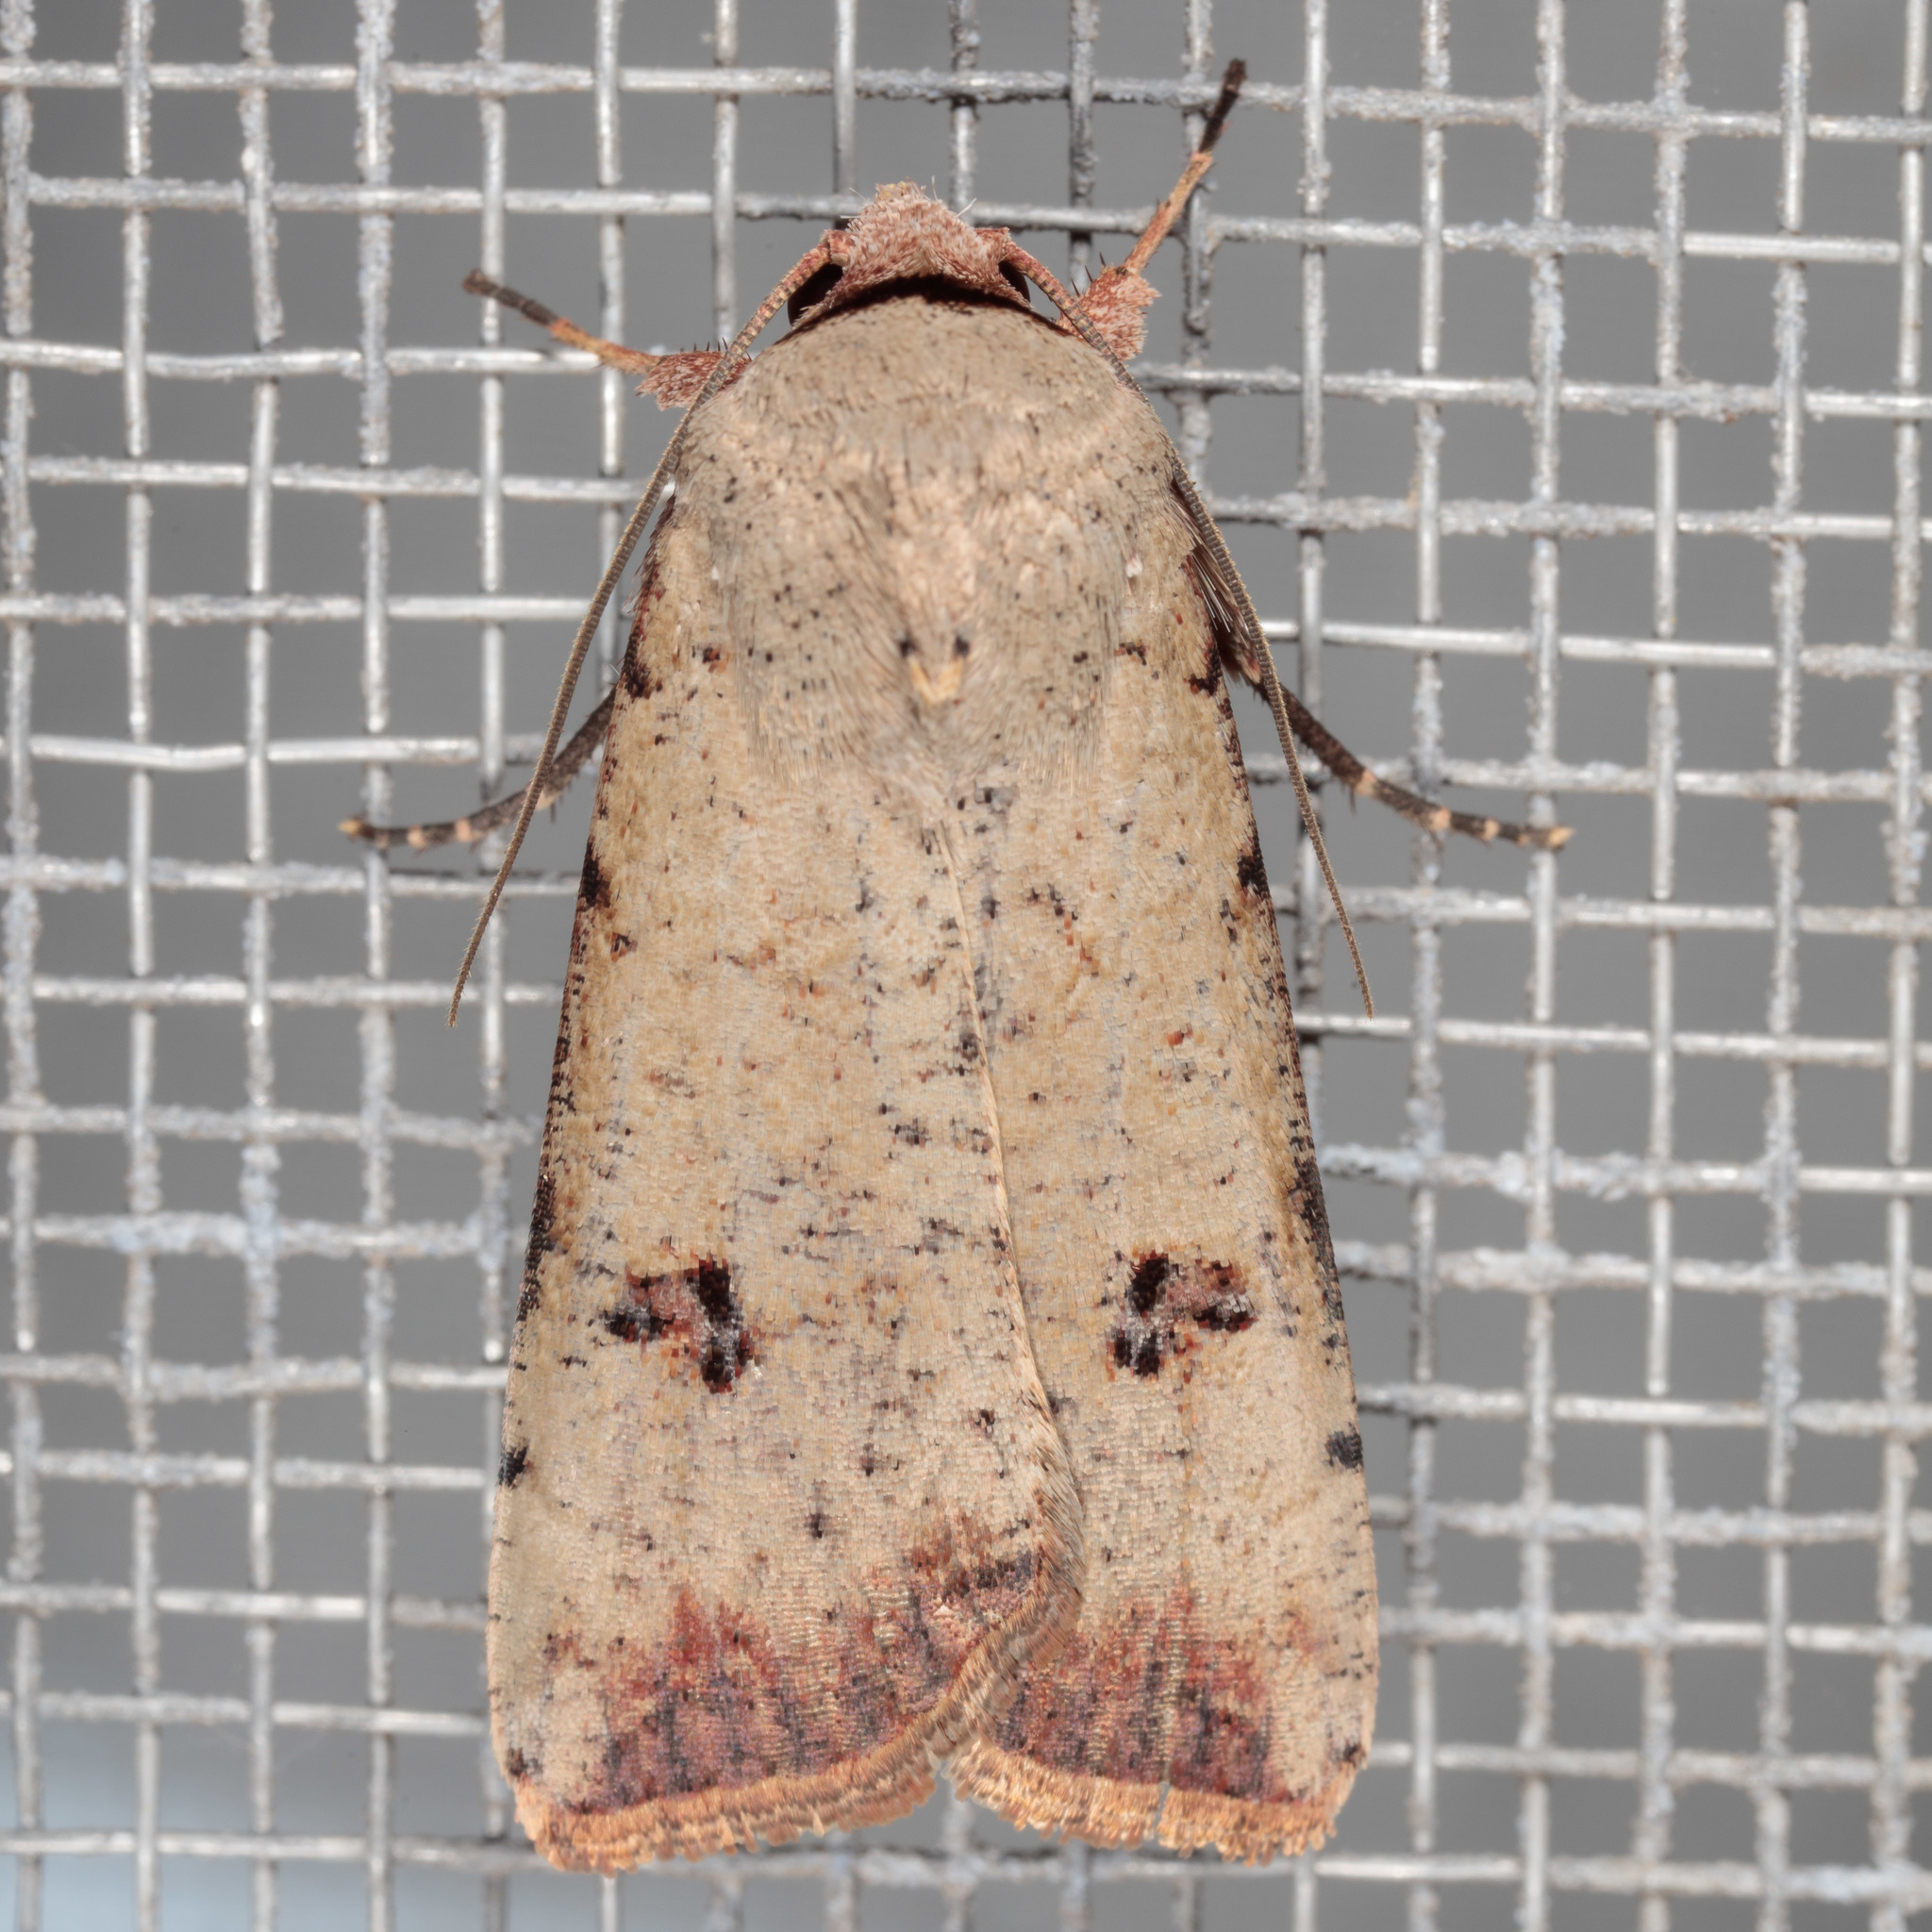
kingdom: Animalia
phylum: Arthropoda
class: Insecta
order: Lepidoptera
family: Noctuidae
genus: Anicla
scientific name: Anicla infecta
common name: Green cutworm
